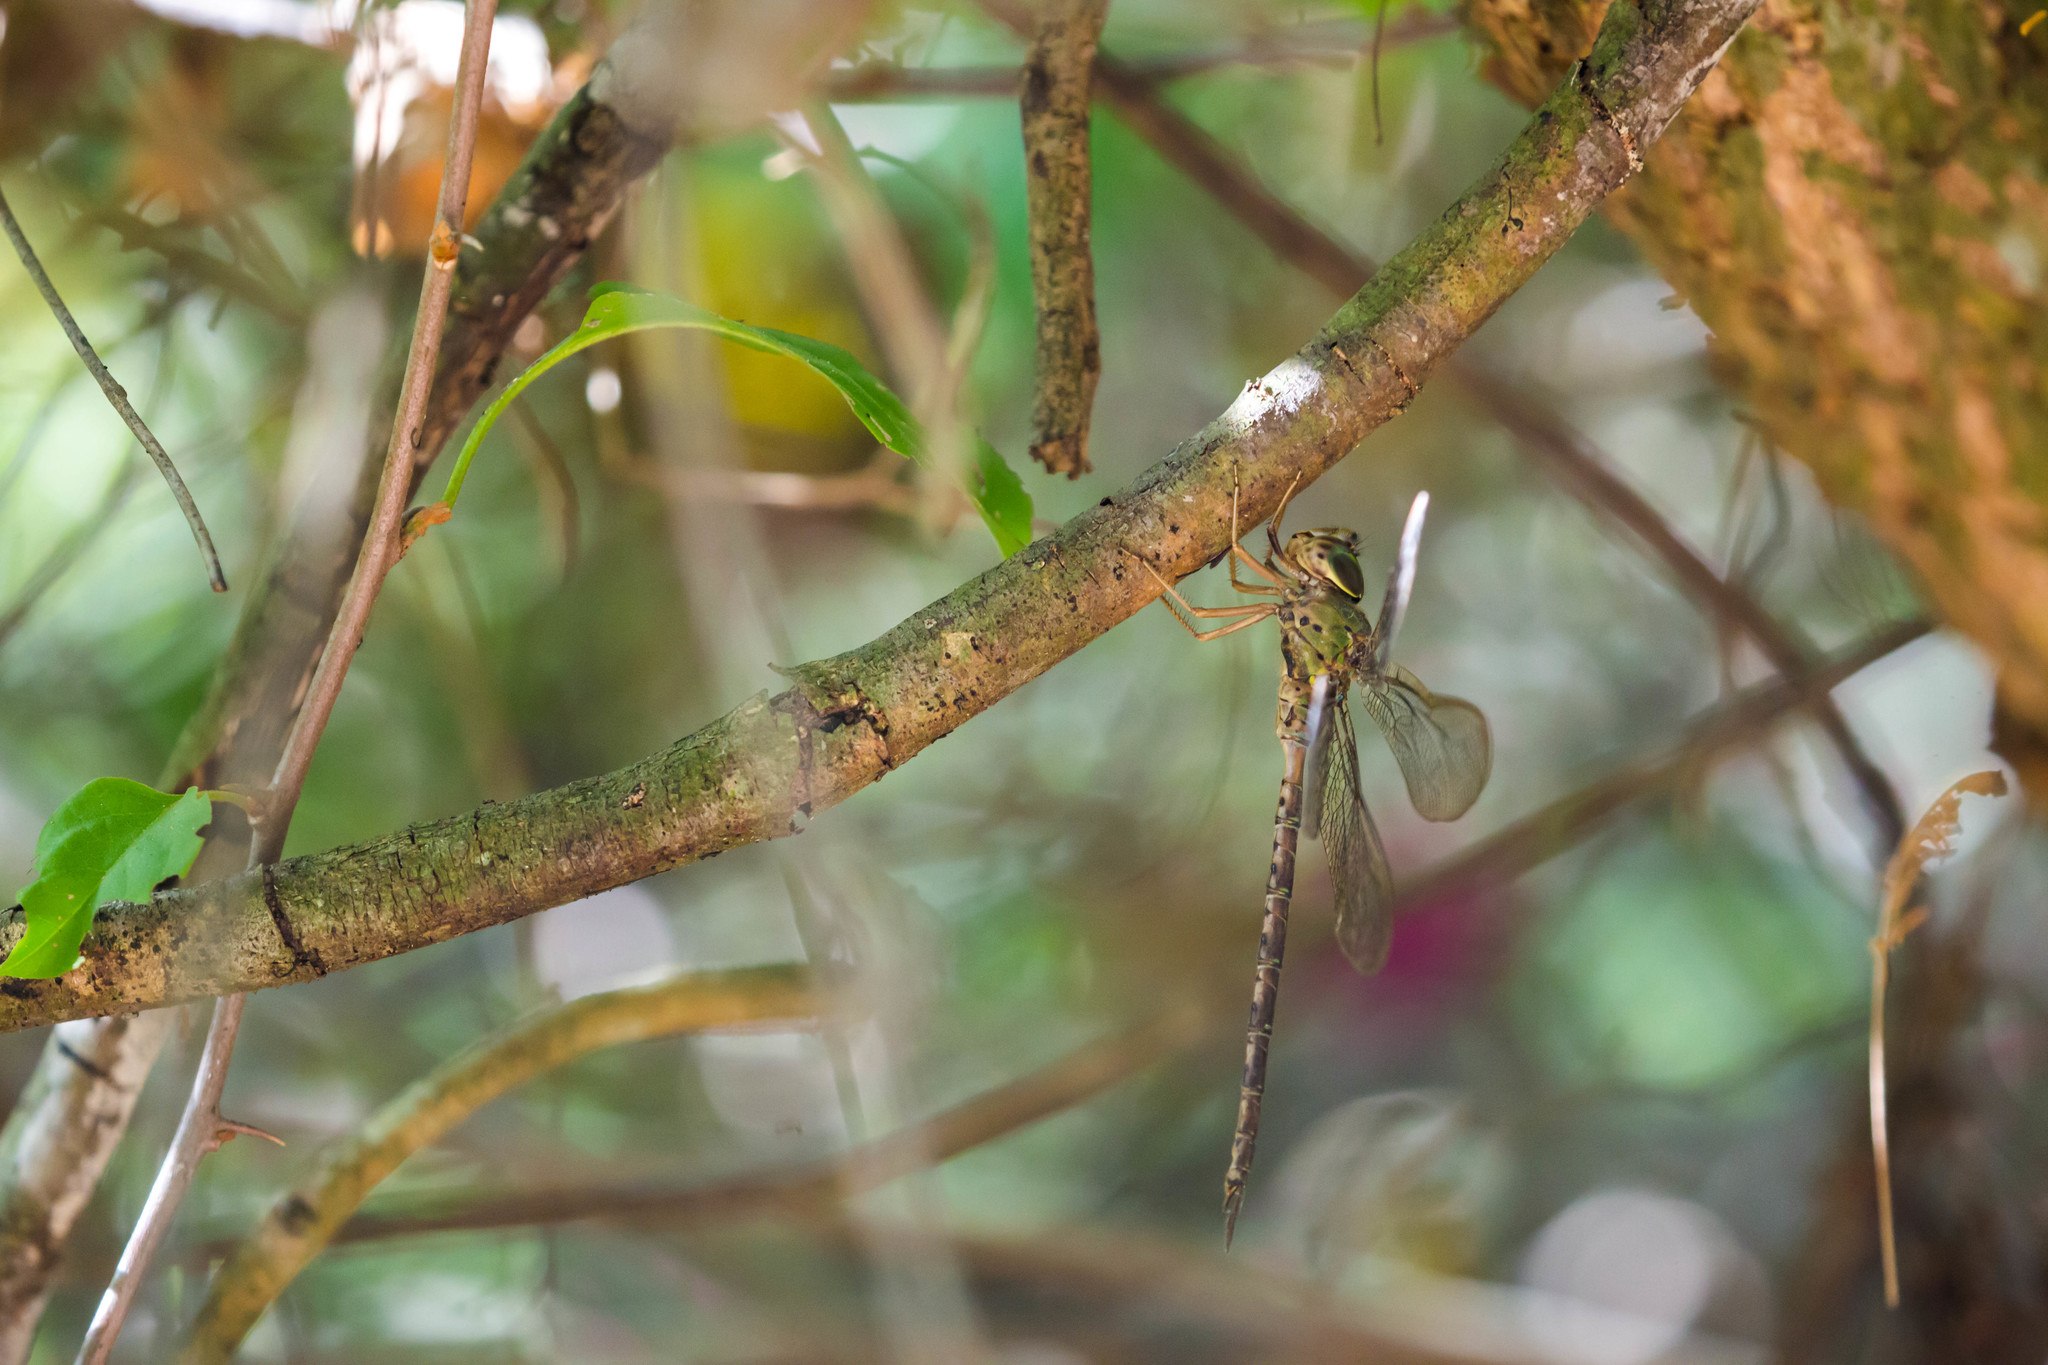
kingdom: Animalia
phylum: Arthropoda
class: Insecta
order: Odonata
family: Aeshnidae
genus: Gynacantha
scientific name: Gynacantha mexicana
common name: Bar-sided darner
